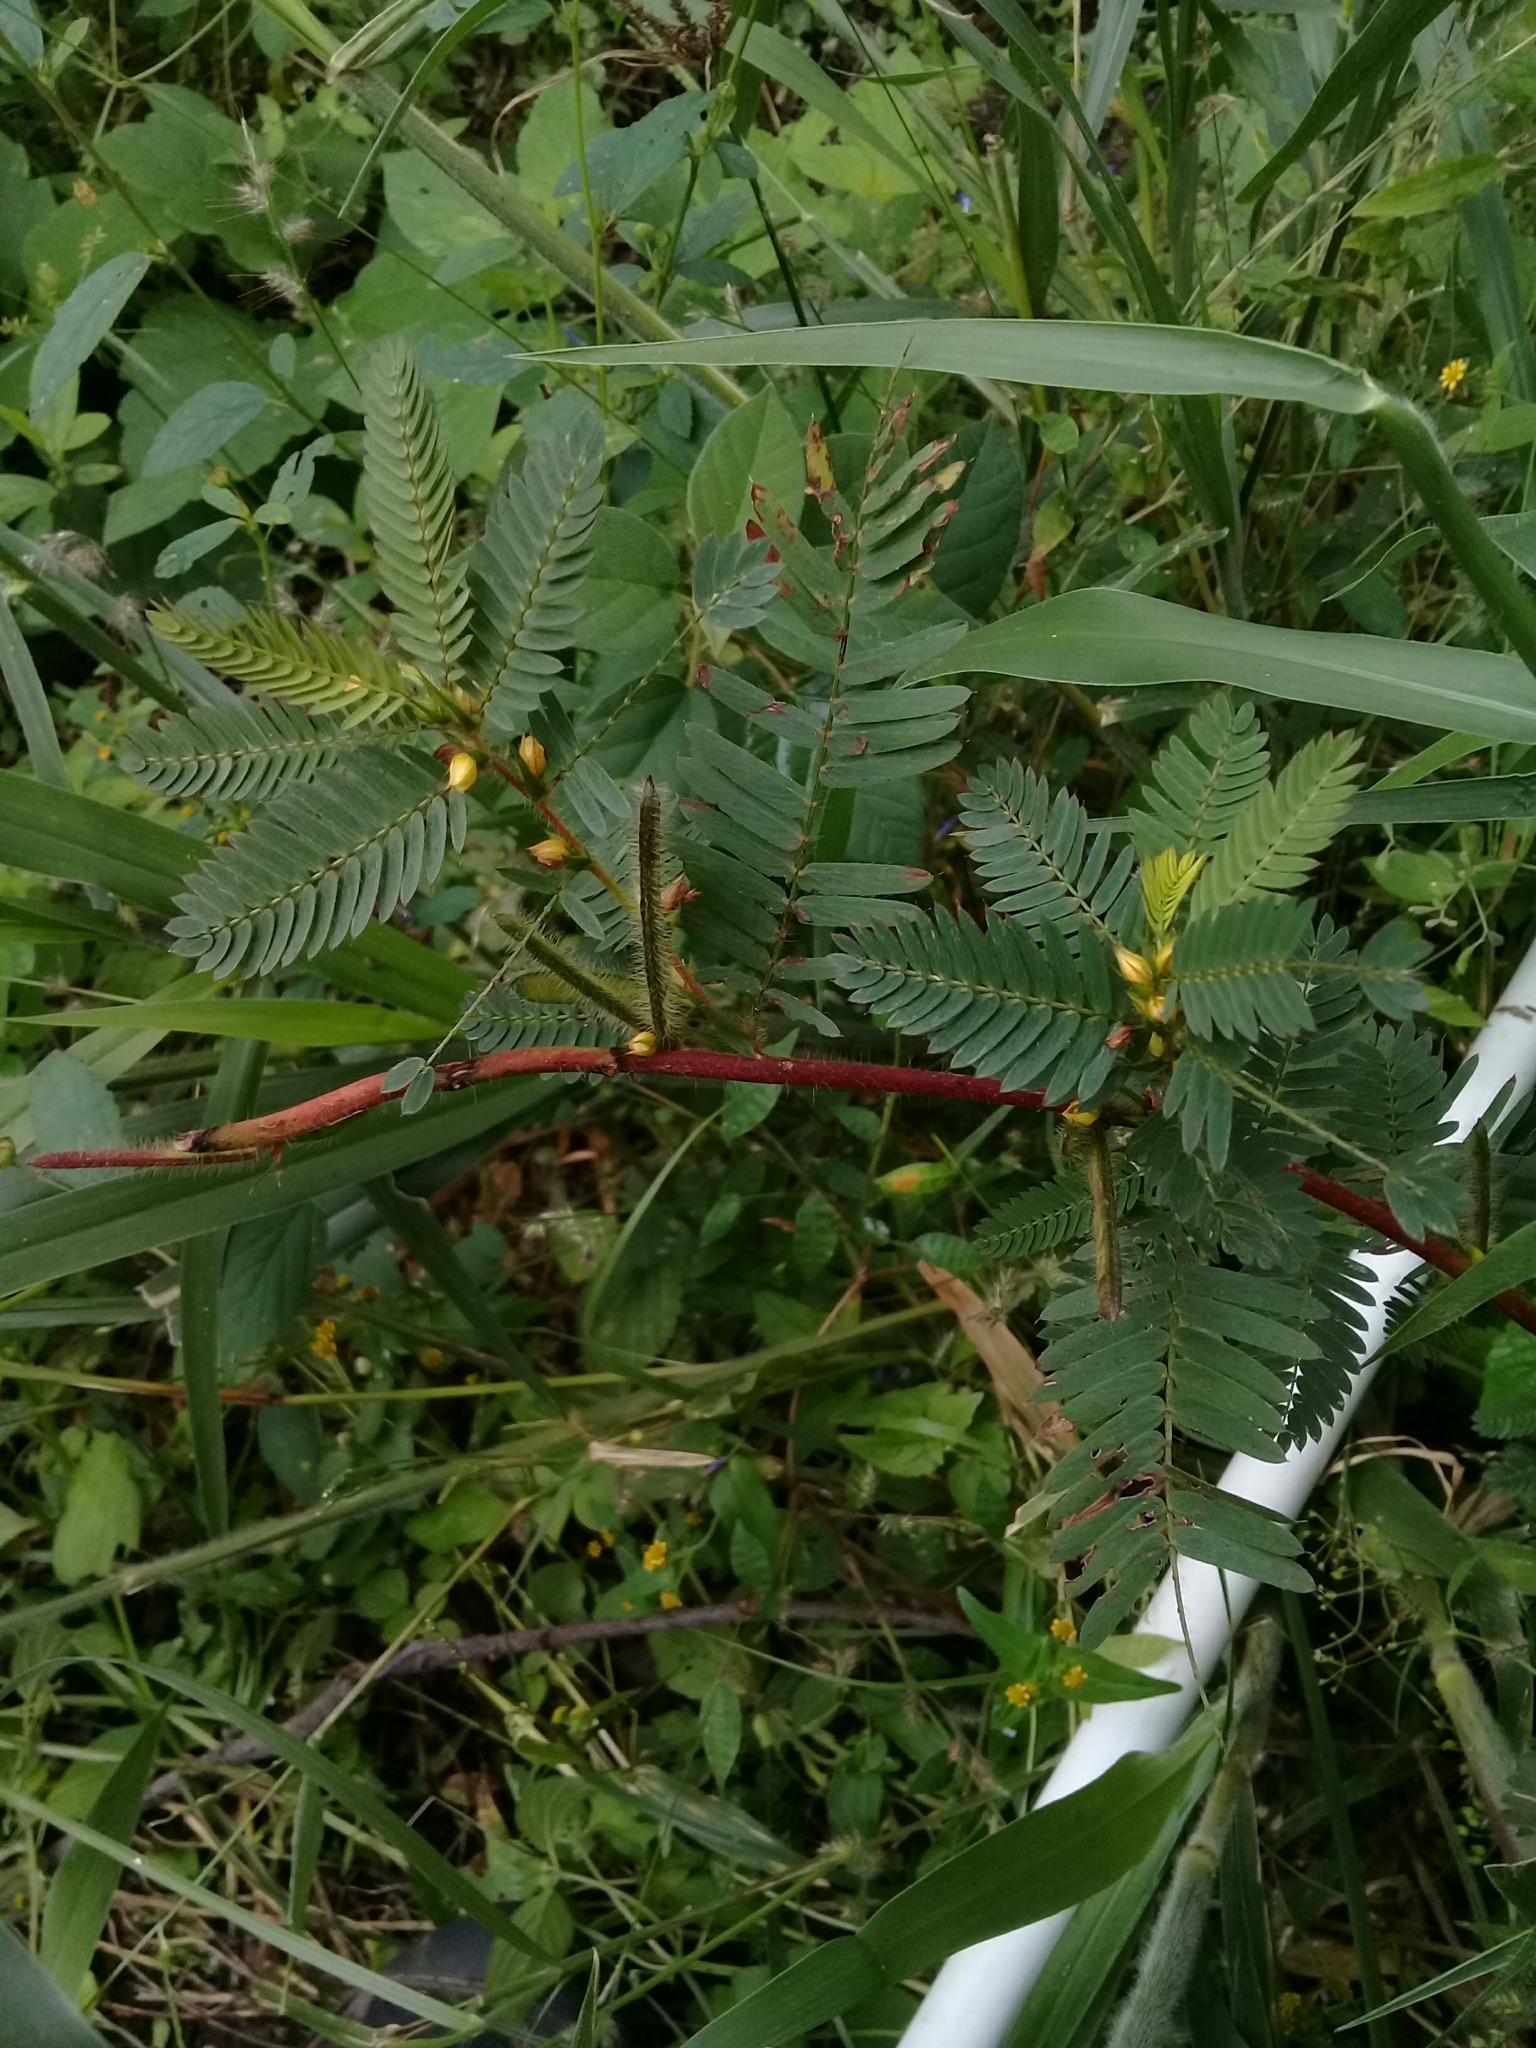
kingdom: Plantae
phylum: Tracheophyta
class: Magnoliopsida
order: Fabales
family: Fabaceae
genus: Aeschynomene
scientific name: Aeschynomene americana
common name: Joint-vetch
